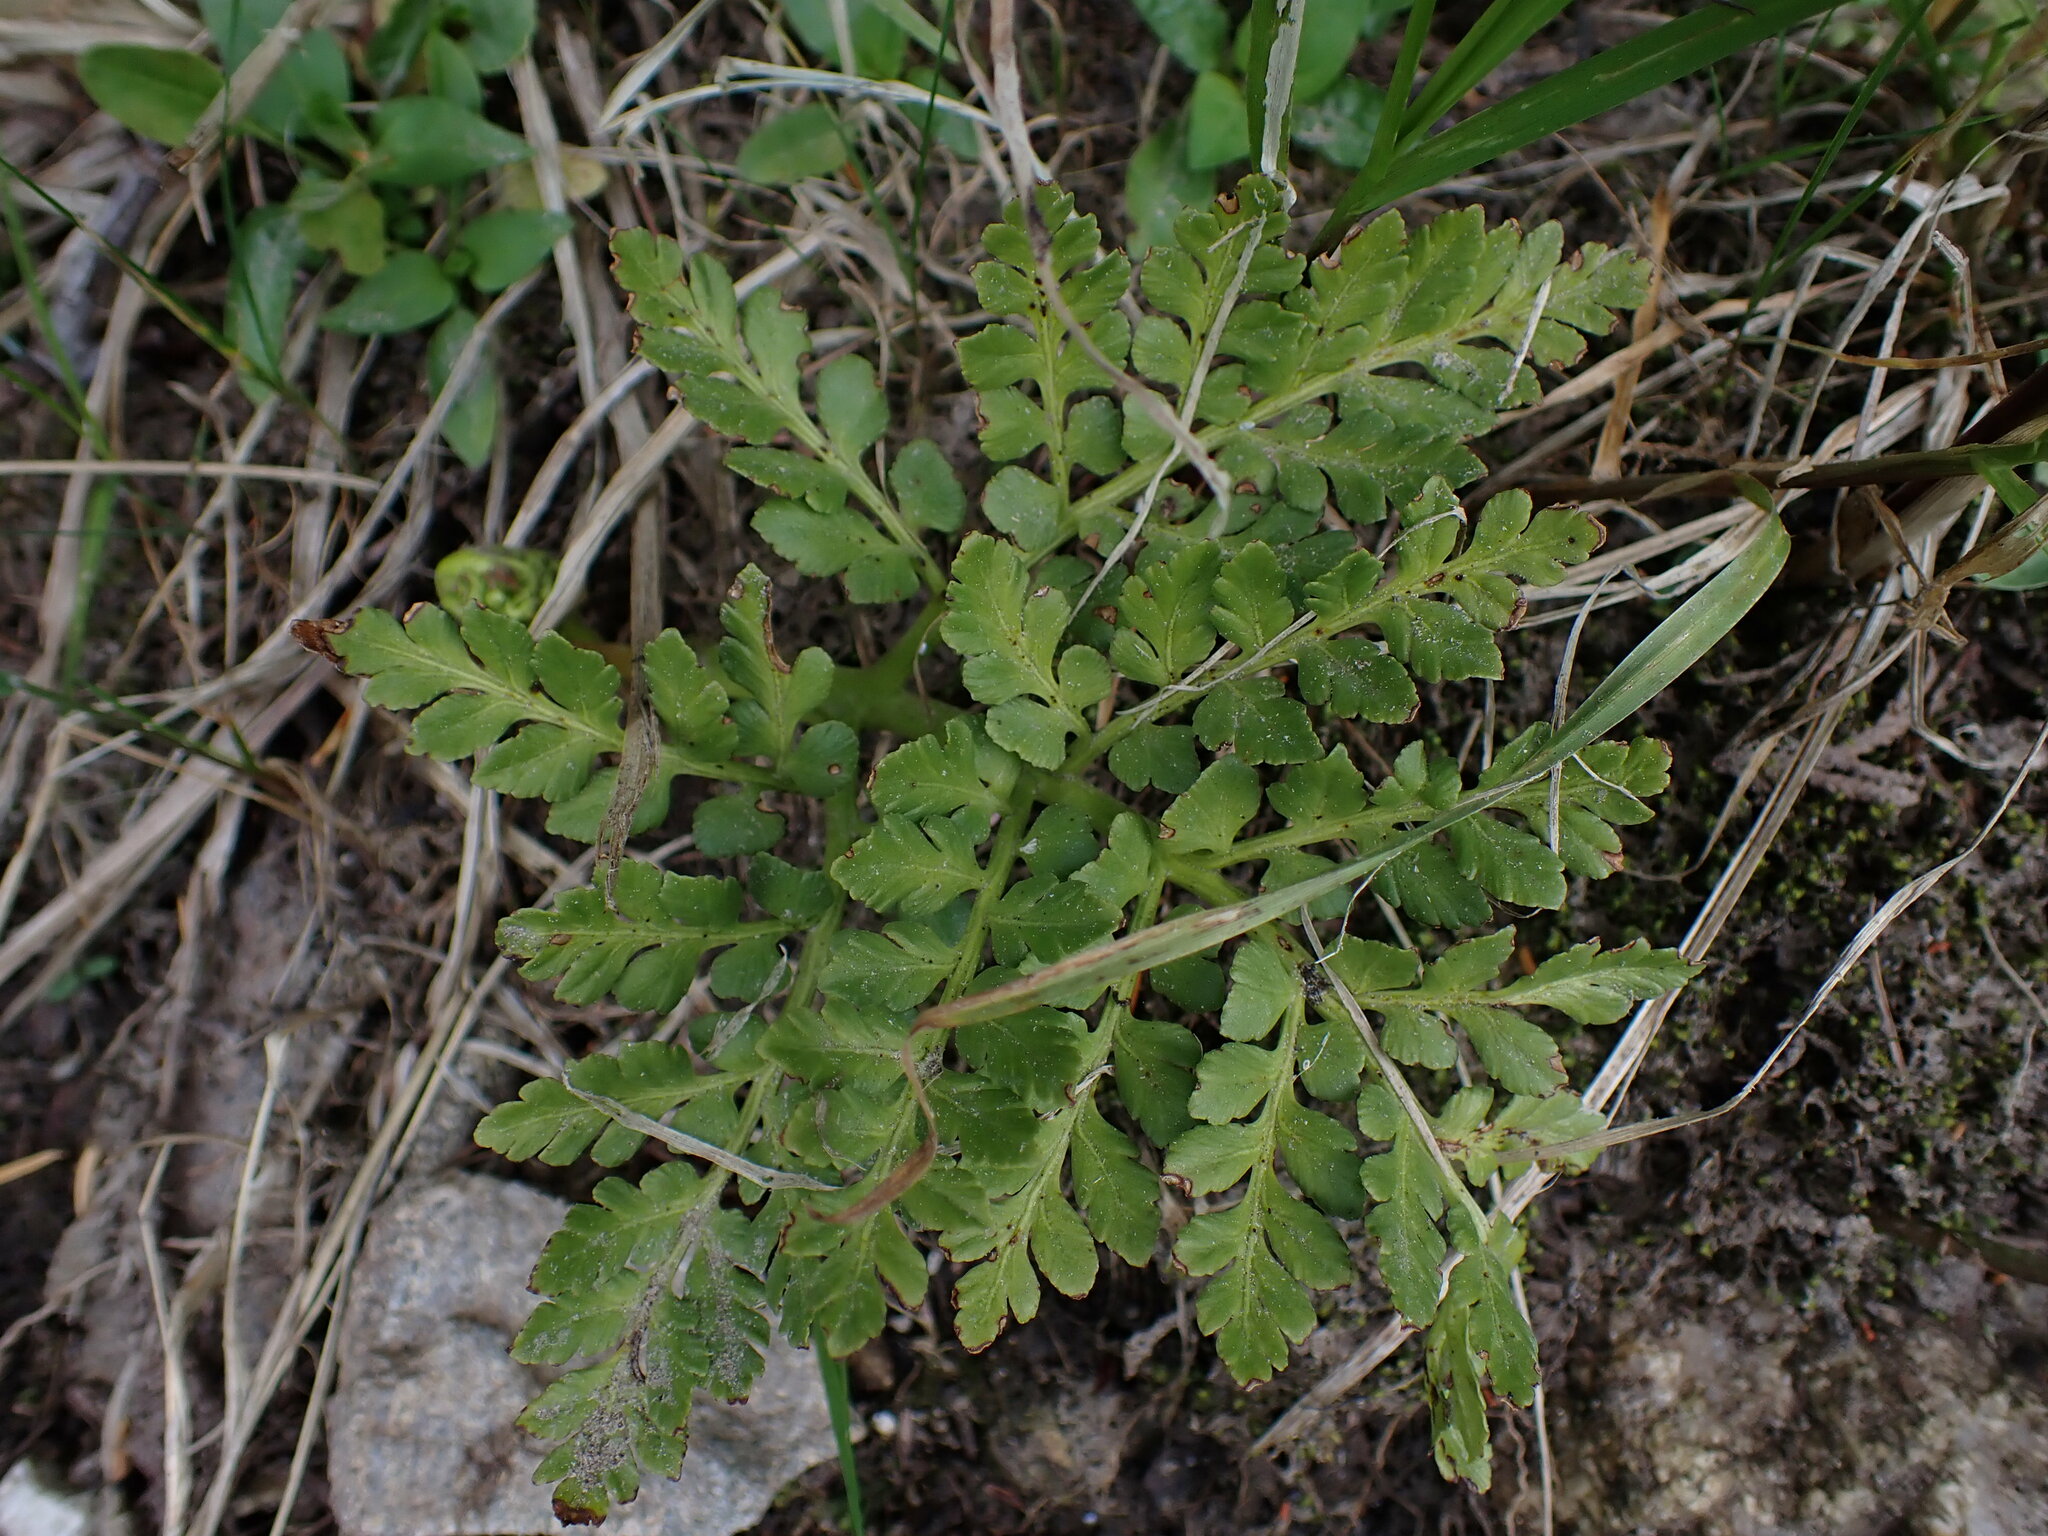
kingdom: Plantae
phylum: Tracheophyta
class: Polypodiopsida
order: Ophioglossales
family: Ophioglossaceae
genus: Sceptridium
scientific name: Sceptridium multifidum
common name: Leathery grape fern
